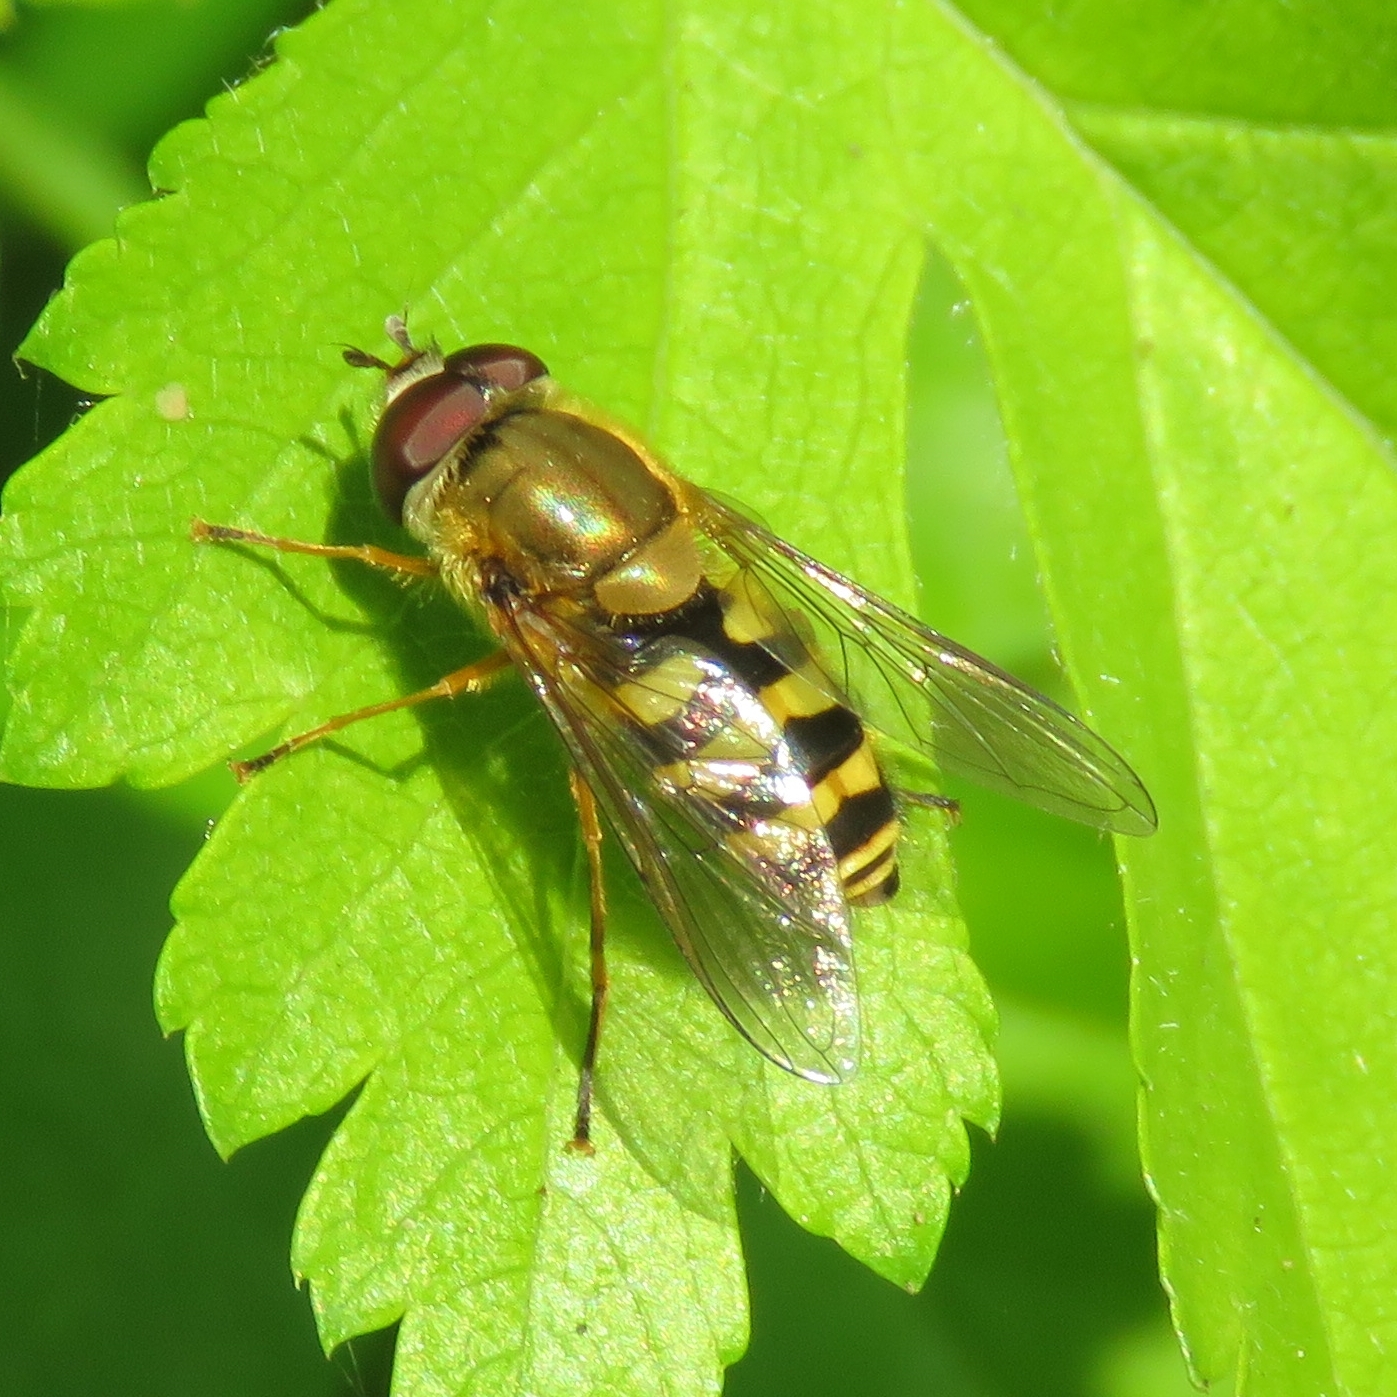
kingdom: Animalia
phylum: Arthropoda
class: Insecta
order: Diptera
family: Syrphidae
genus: Syrphus
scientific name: Syrphus
